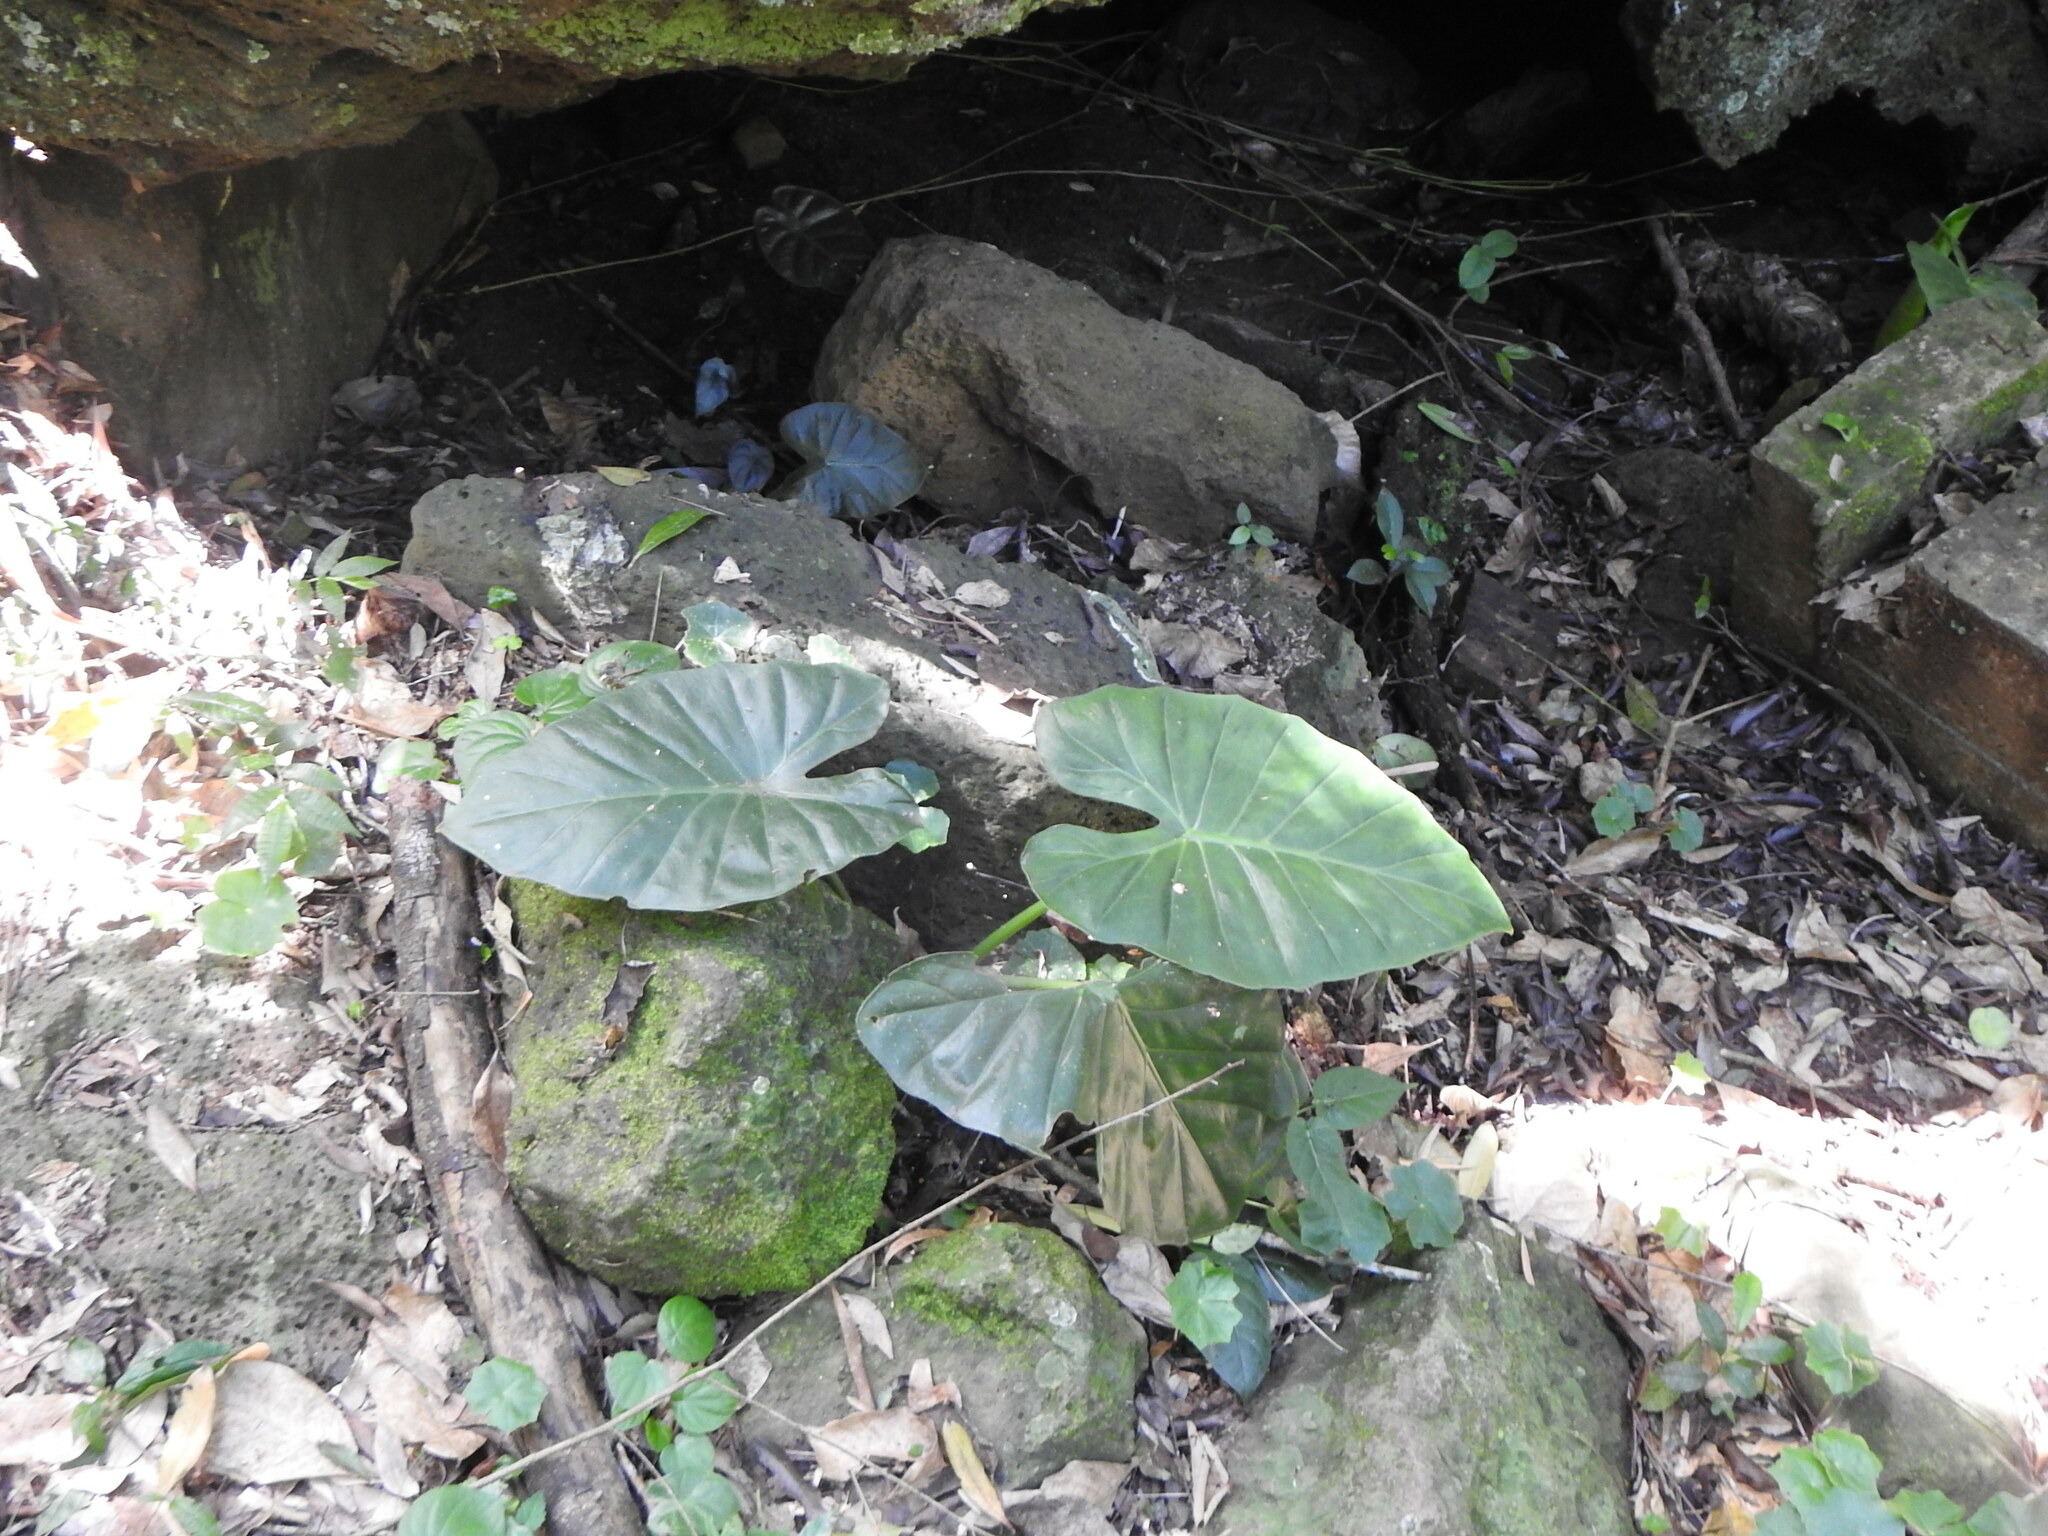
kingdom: Plantae
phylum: Tracheophyta
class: Liliopsida
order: Alismatales
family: Araceae
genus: Alocasia
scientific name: Alocasia macrorrhizos
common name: Giant taro
